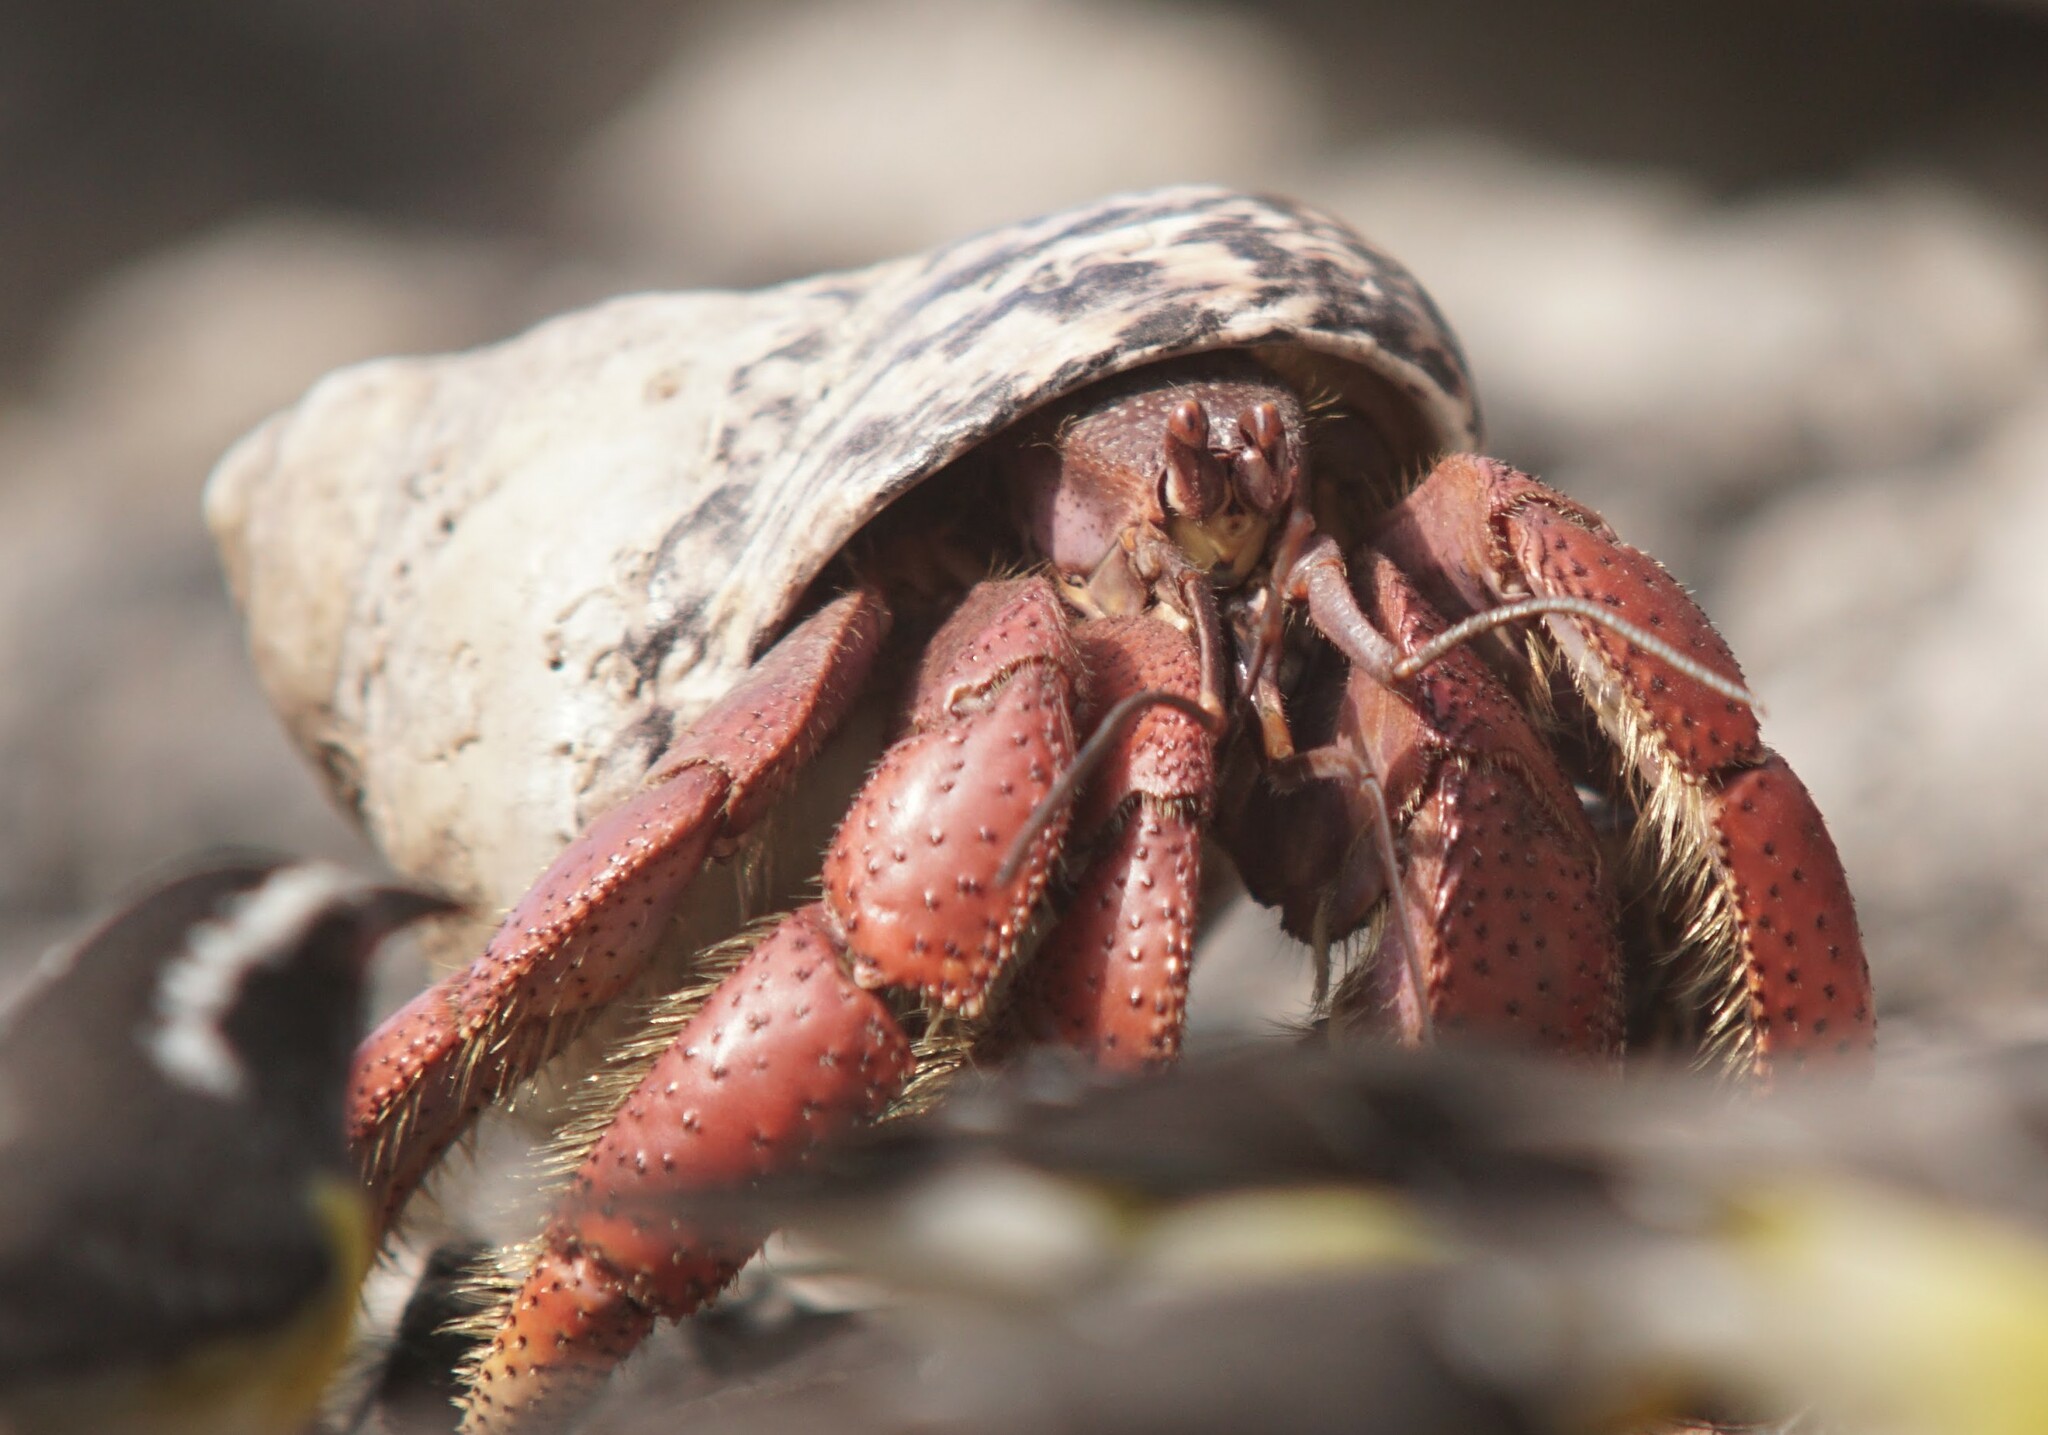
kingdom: Animalia
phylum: Arthropoda
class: Malacostraca
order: Decapoda
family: Coenobitidae
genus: Coenobita
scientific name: Coenobita clypeatus
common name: Caribbean hermit crab
